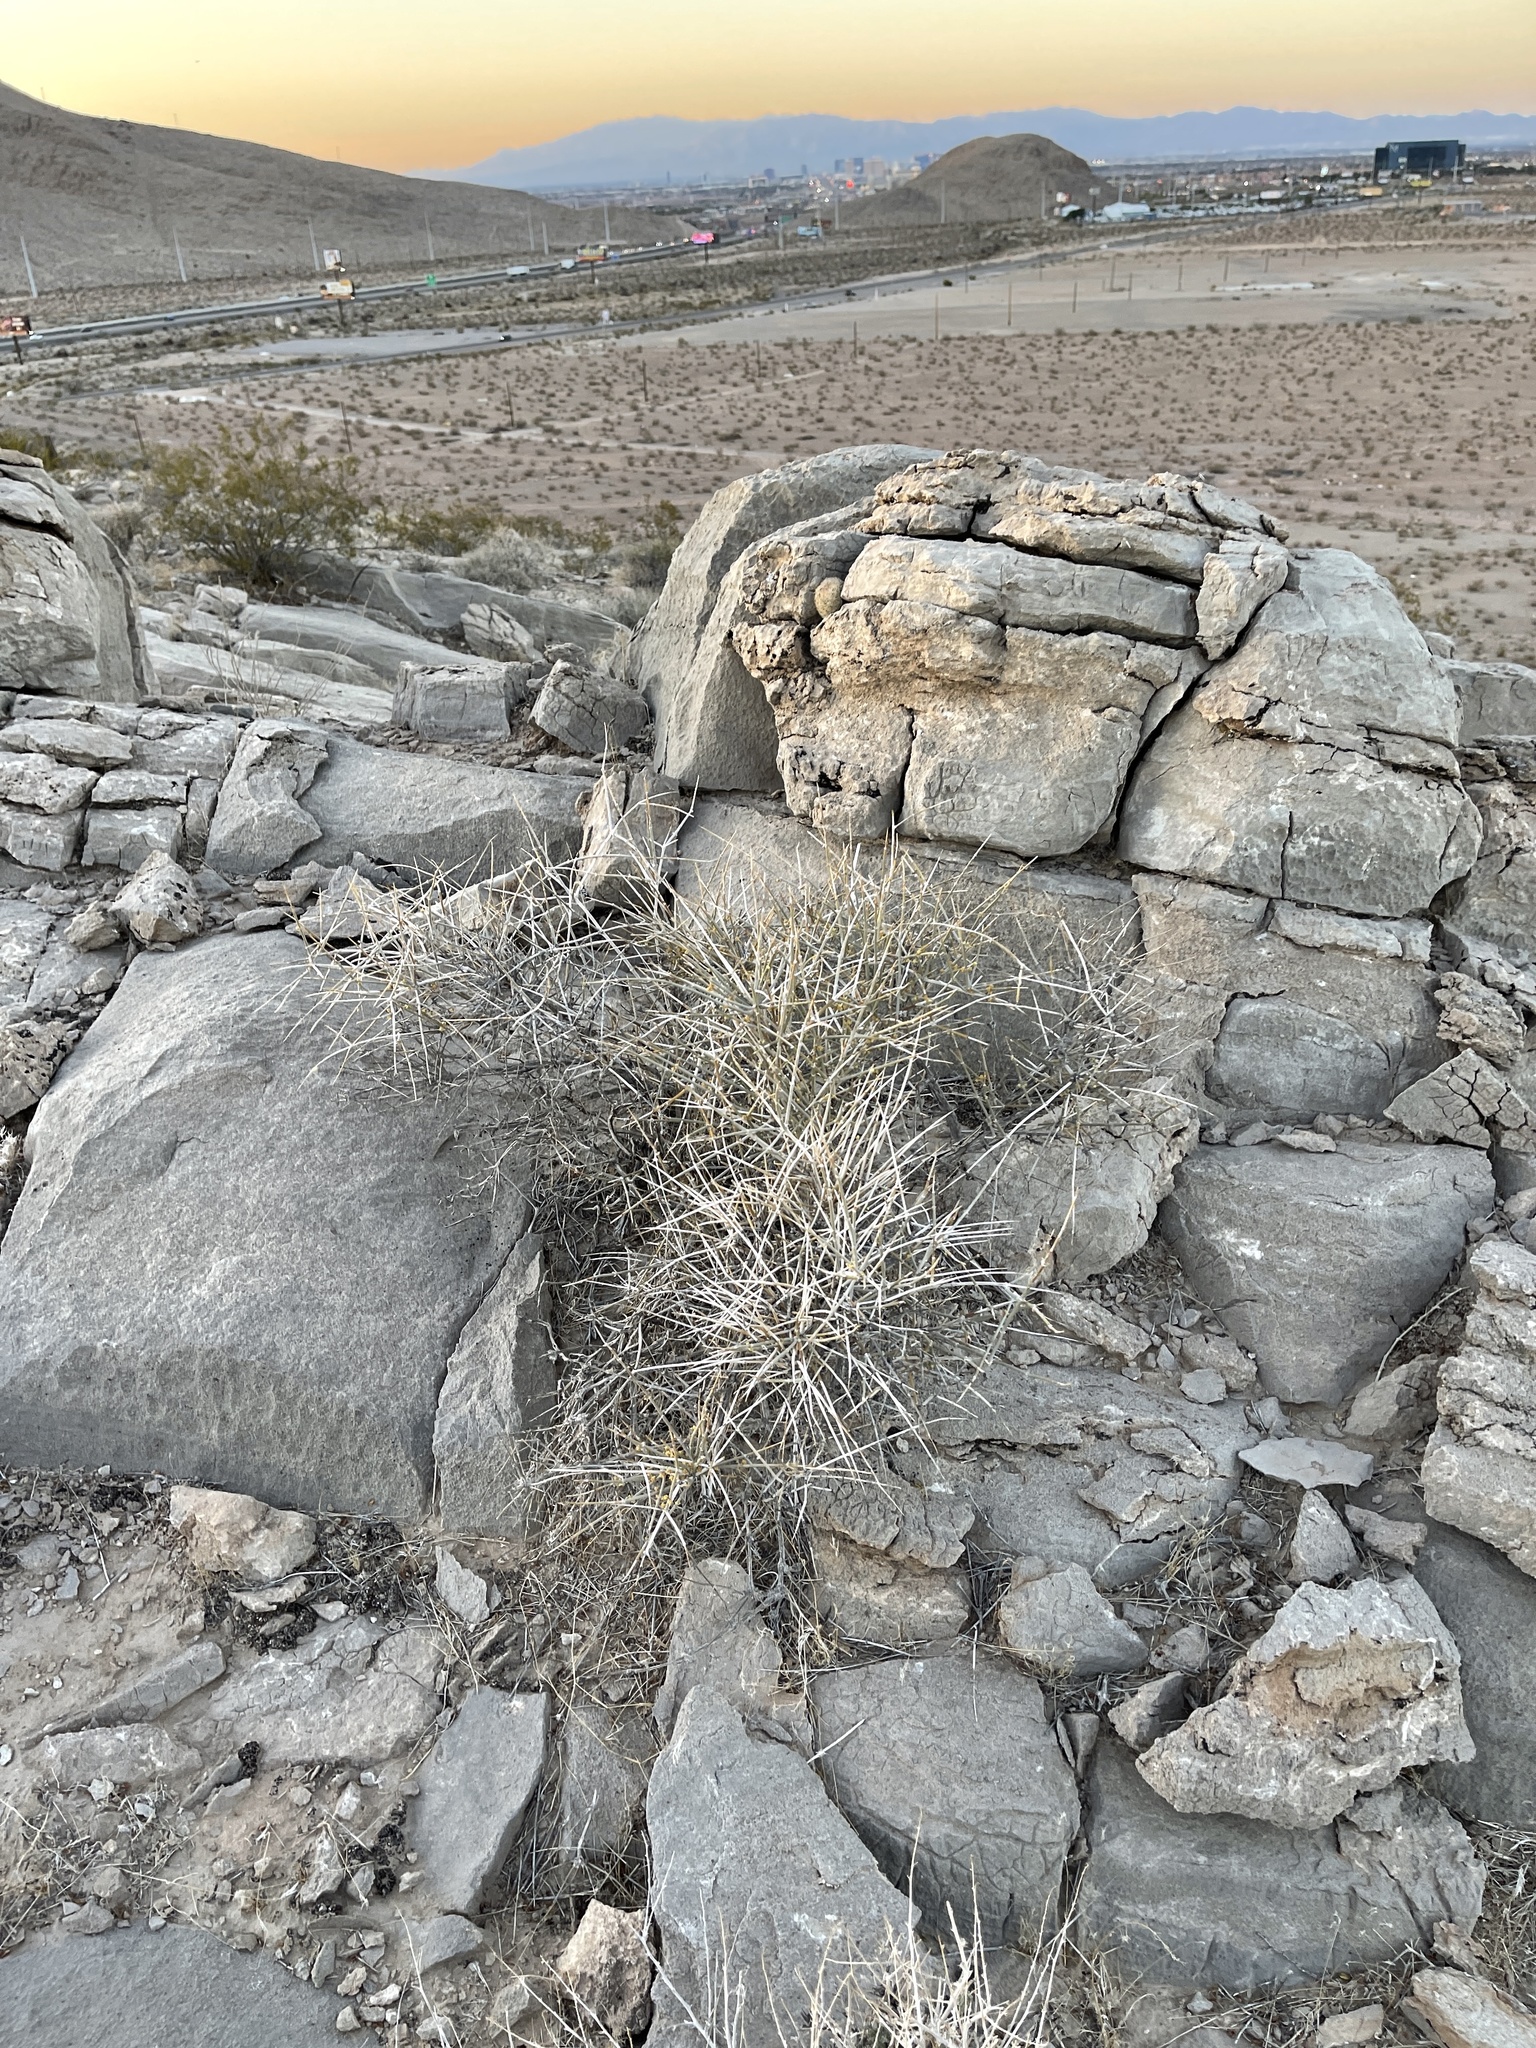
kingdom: Plantae
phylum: Tracheophyta
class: Gnetopsida
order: Ephedrales
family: Ephedraceae
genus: Ephedra
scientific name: Ephedra nevadensis
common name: Gray ephedra
